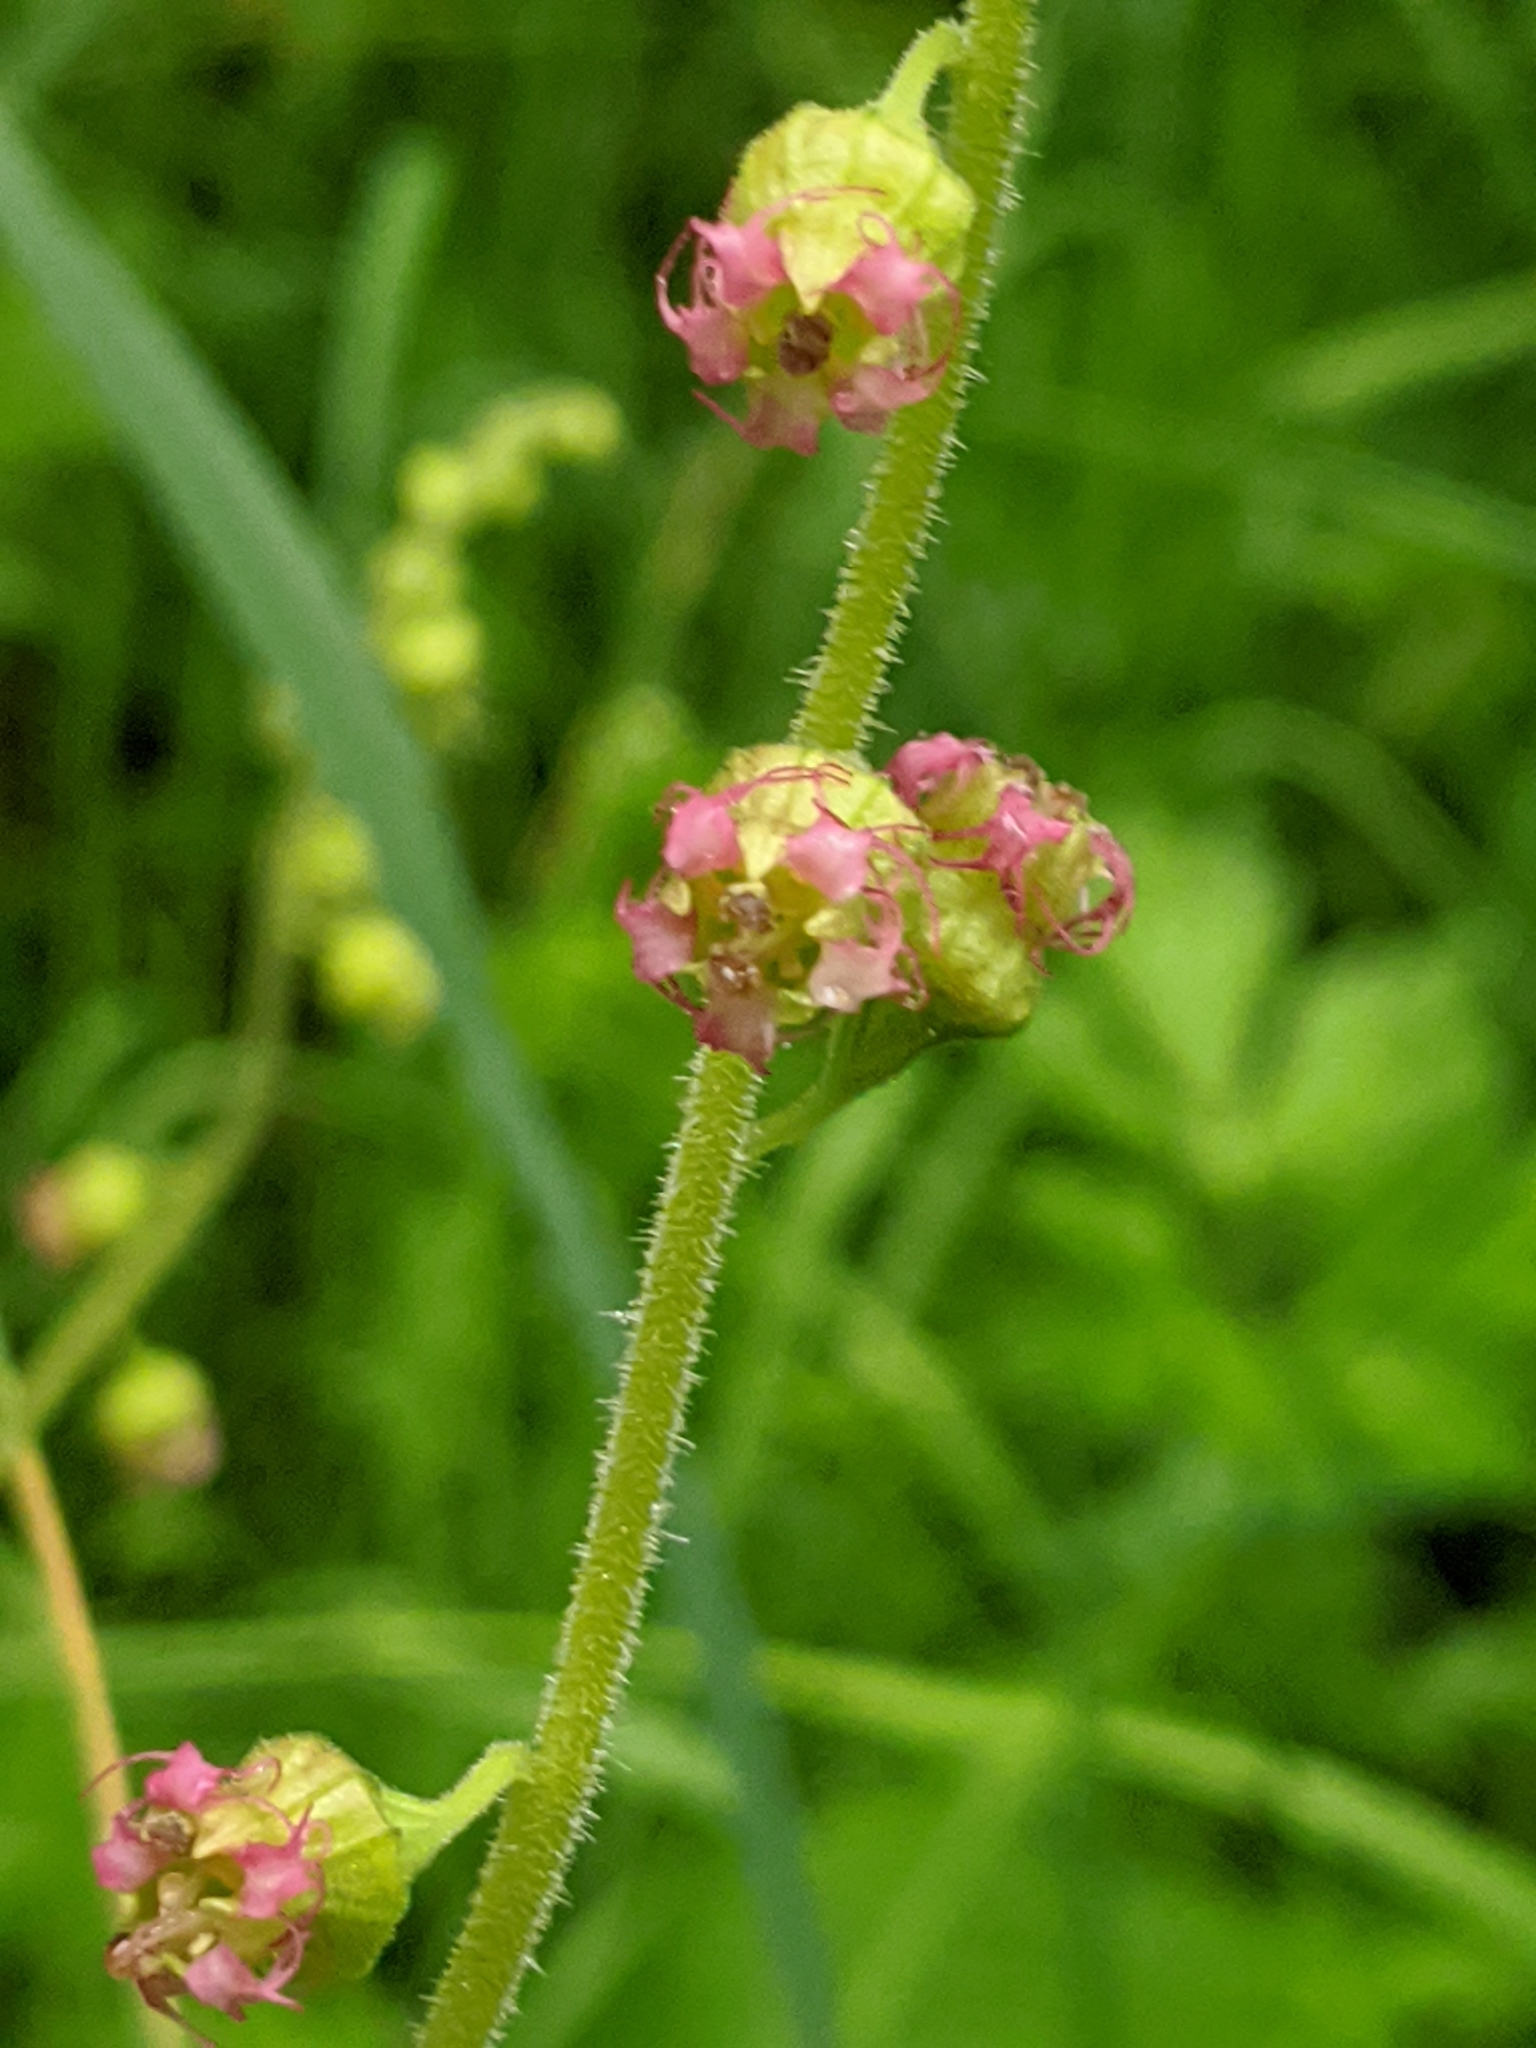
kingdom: Plantae
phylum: Tracheophyta
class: Magnoliopsida
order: Saxifragales
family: Saxifragaceae
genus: Tellima
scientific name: Tellima grandiflora
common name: Fringecups
